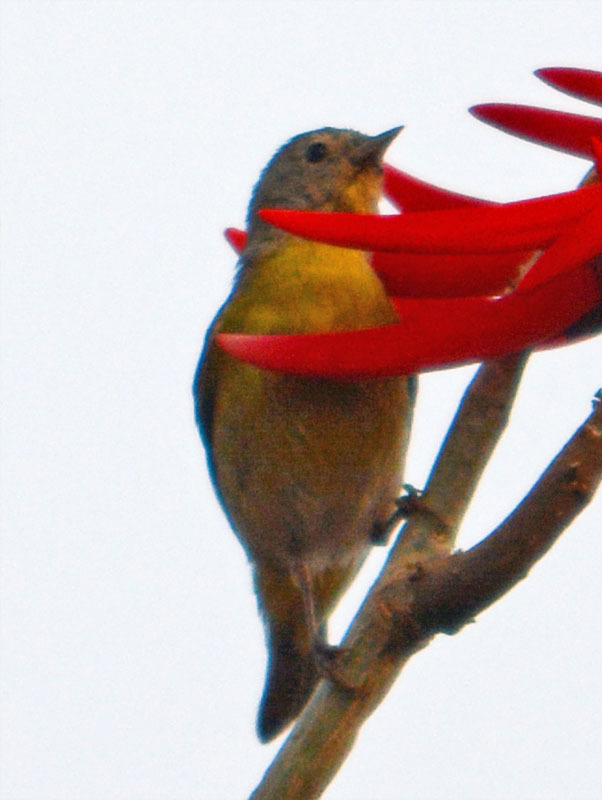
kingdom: Animalia
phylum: Chordata
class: Aves
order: Passeriformes
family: Parulidae
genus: Leiothlypis
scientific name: Leiothlypis ruficapilla
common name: Nashville warbler
